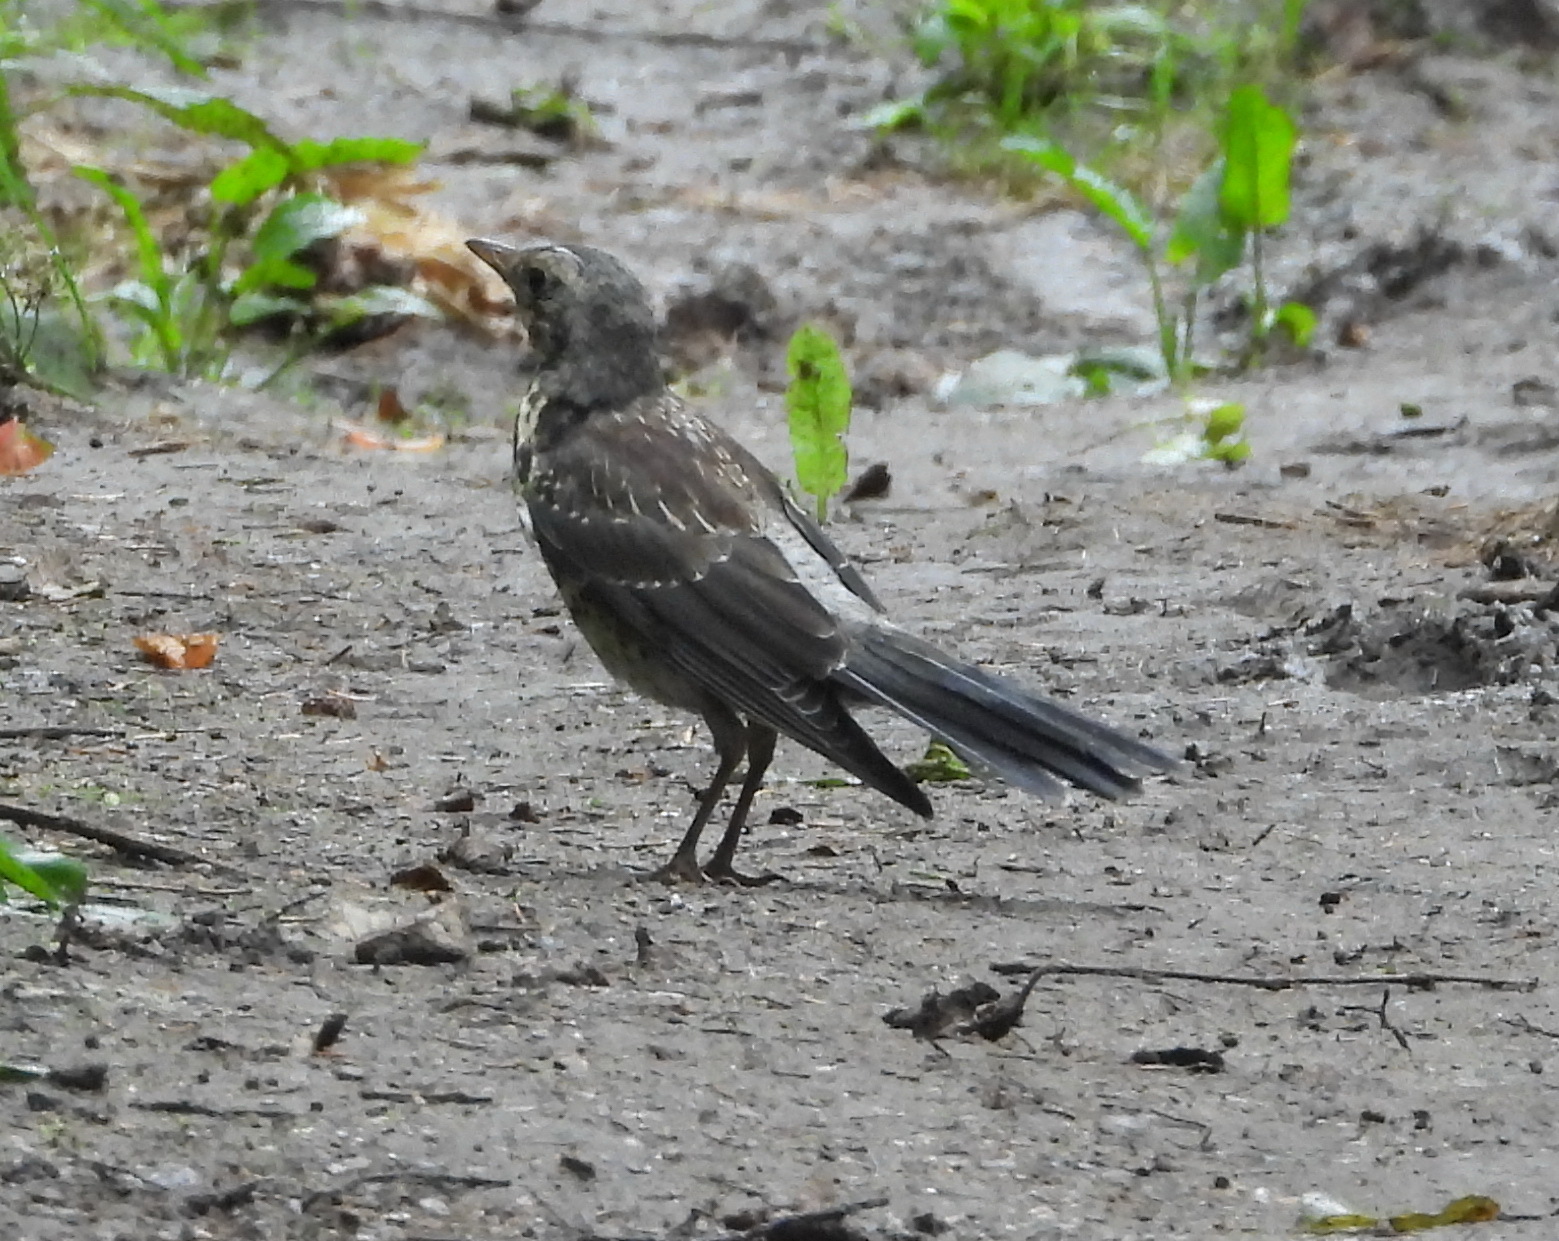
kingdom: Animalia
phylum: Chordata
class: Aves
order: Passeriformes
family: Turdidae
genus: Turdus
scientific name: Turdus pilaris
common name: Fieldfare
